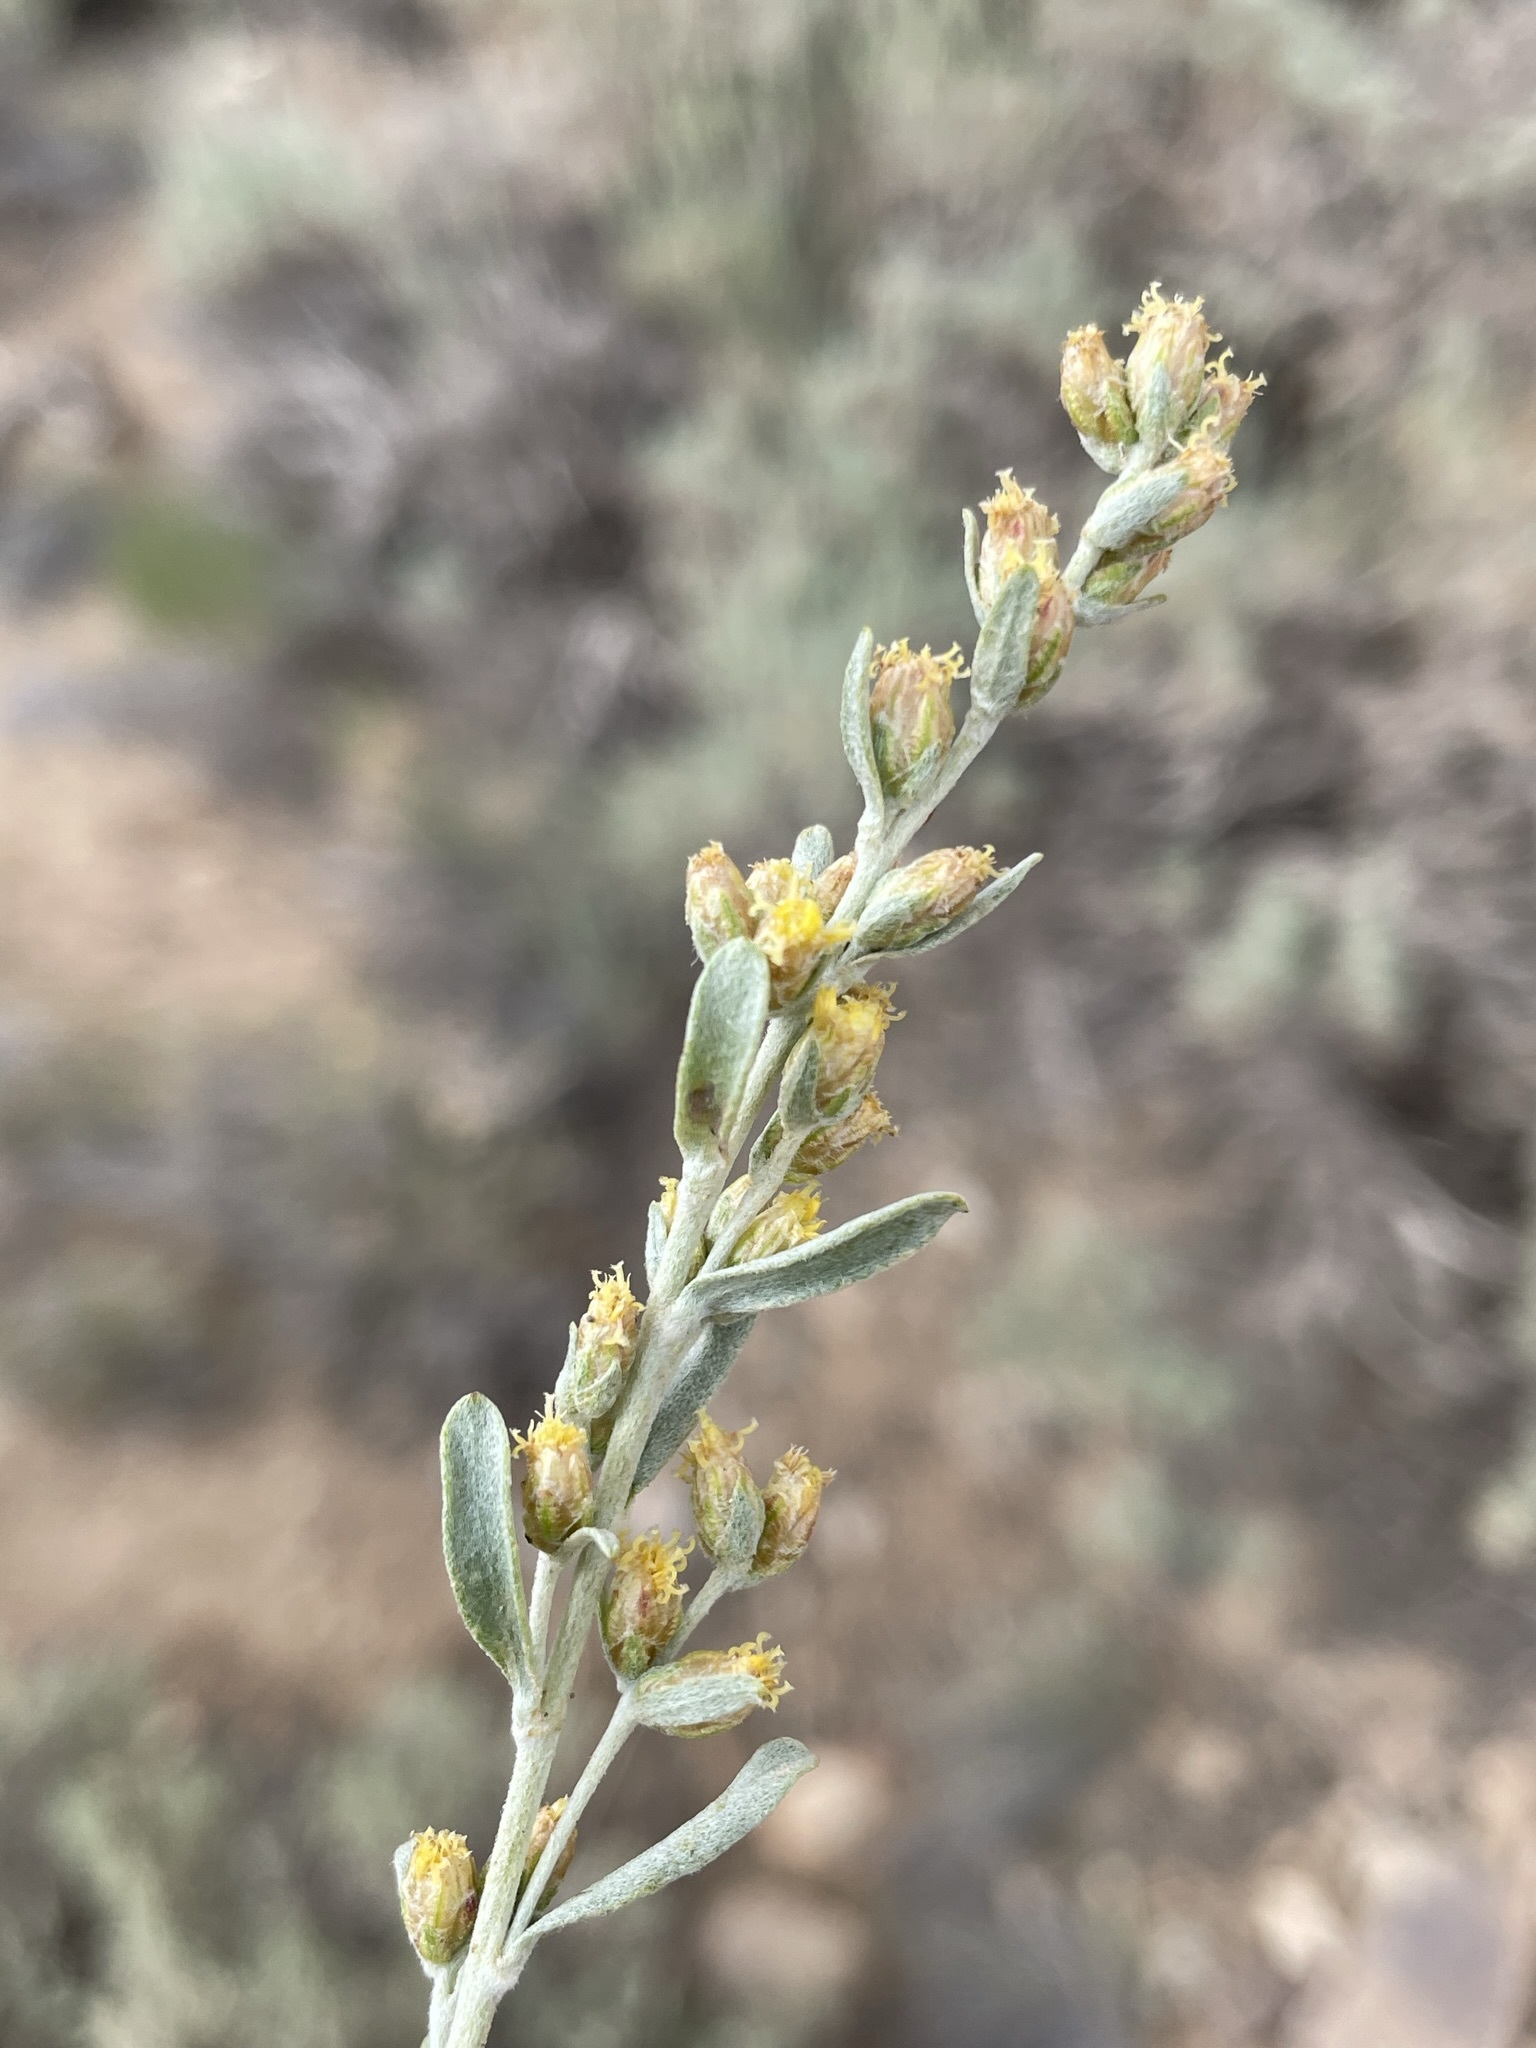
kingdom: Plantae
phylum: Tracheophyta
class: Magnoliopsida
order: Asterales
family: Asteraceae
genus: Artemisia
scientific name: Artemisia rothrockii
